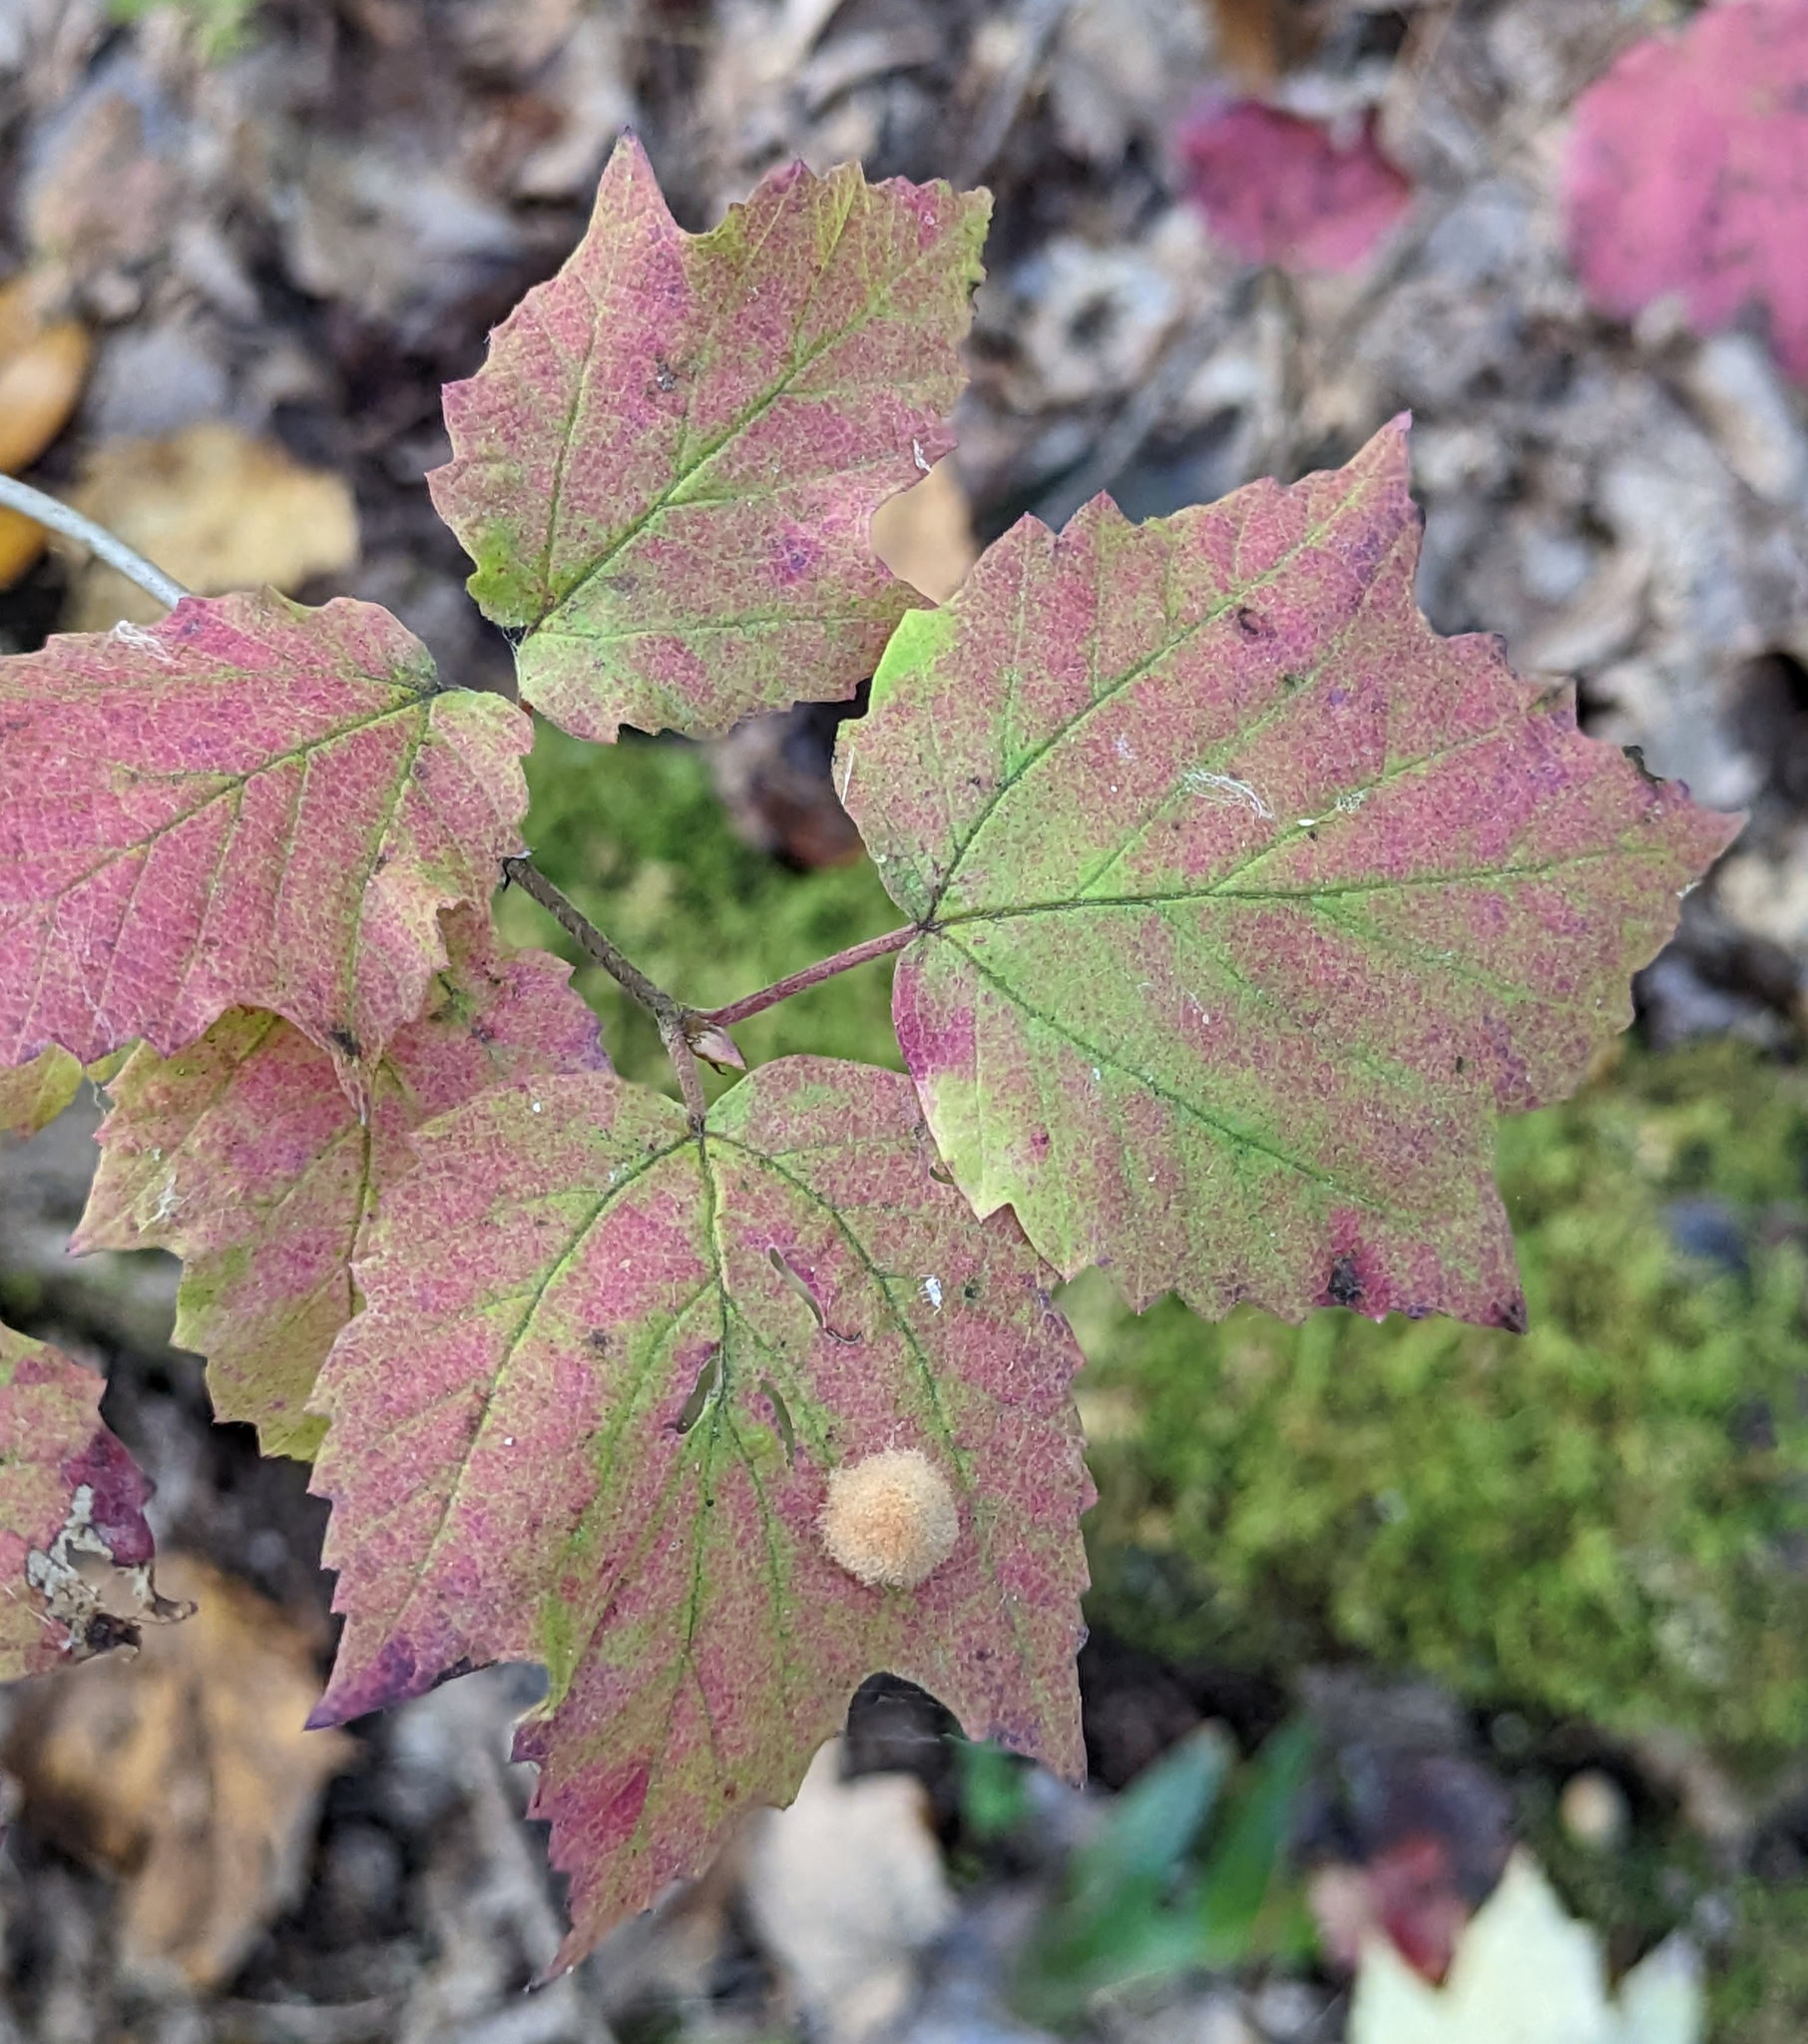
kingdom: Plantae
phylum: Tracheophyta
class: Magnoliopsida
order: Dipsacales
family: Viburnaceae
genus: Viburnum
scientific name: Viburnum acerifolium
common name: Dockmackie
